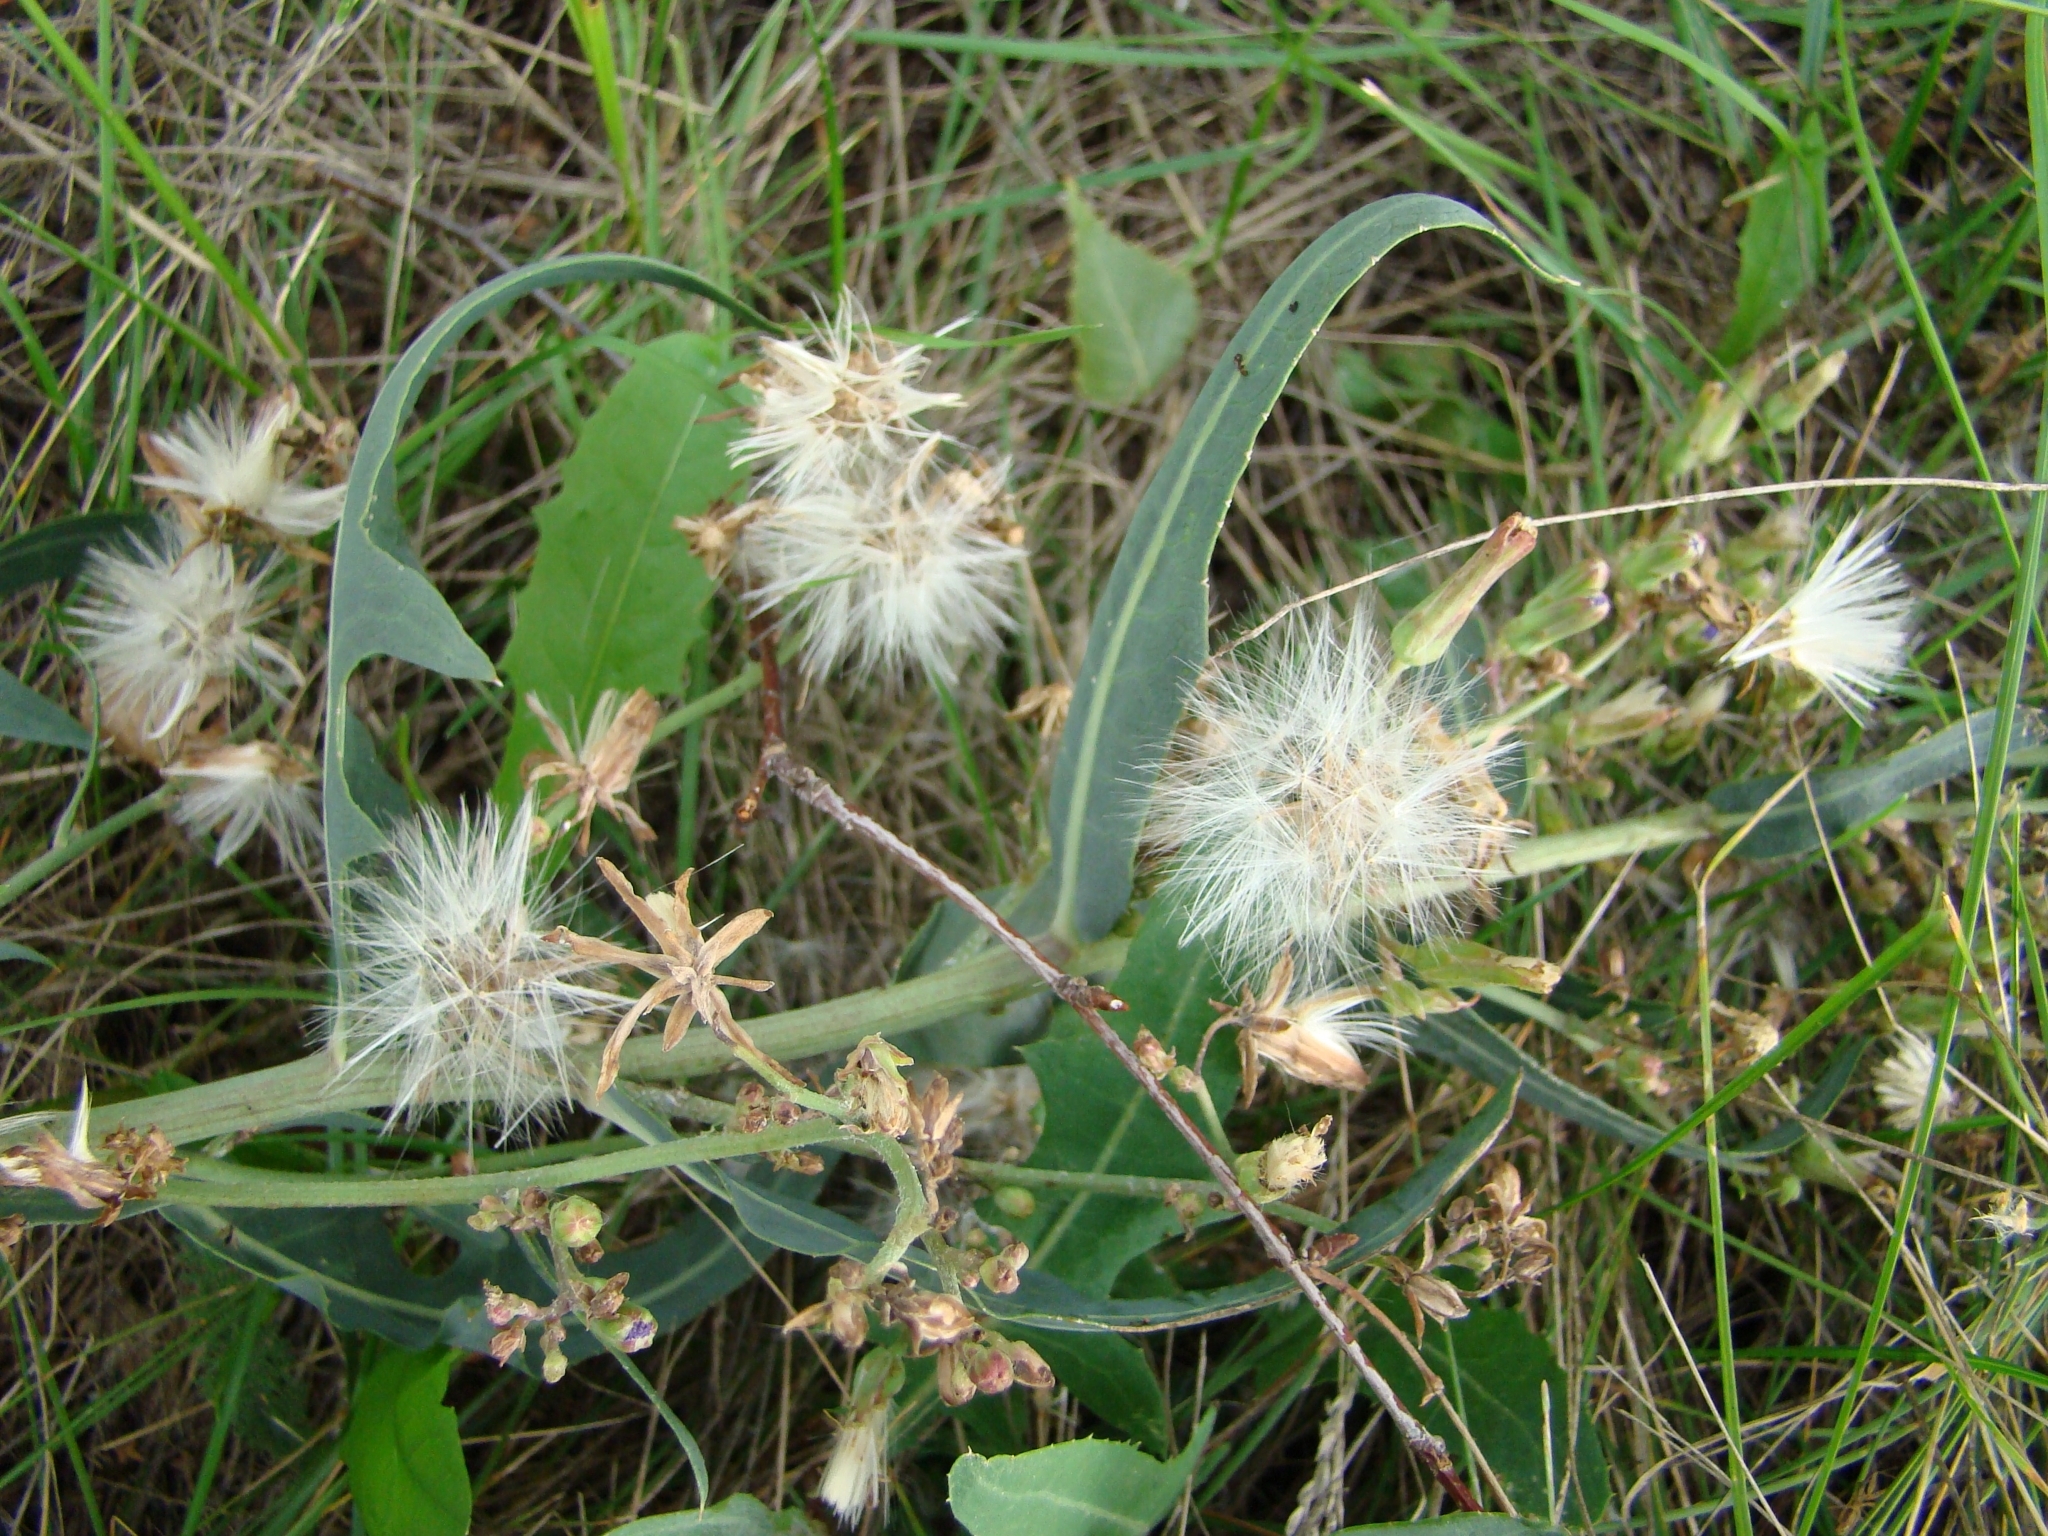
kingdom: Plantae
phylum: Tracheophyta
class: Magnoliopsida
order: Asterales
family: Asteraceae
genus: Lactuca
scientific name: Lactuca tatarica
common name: Blue lettuce
